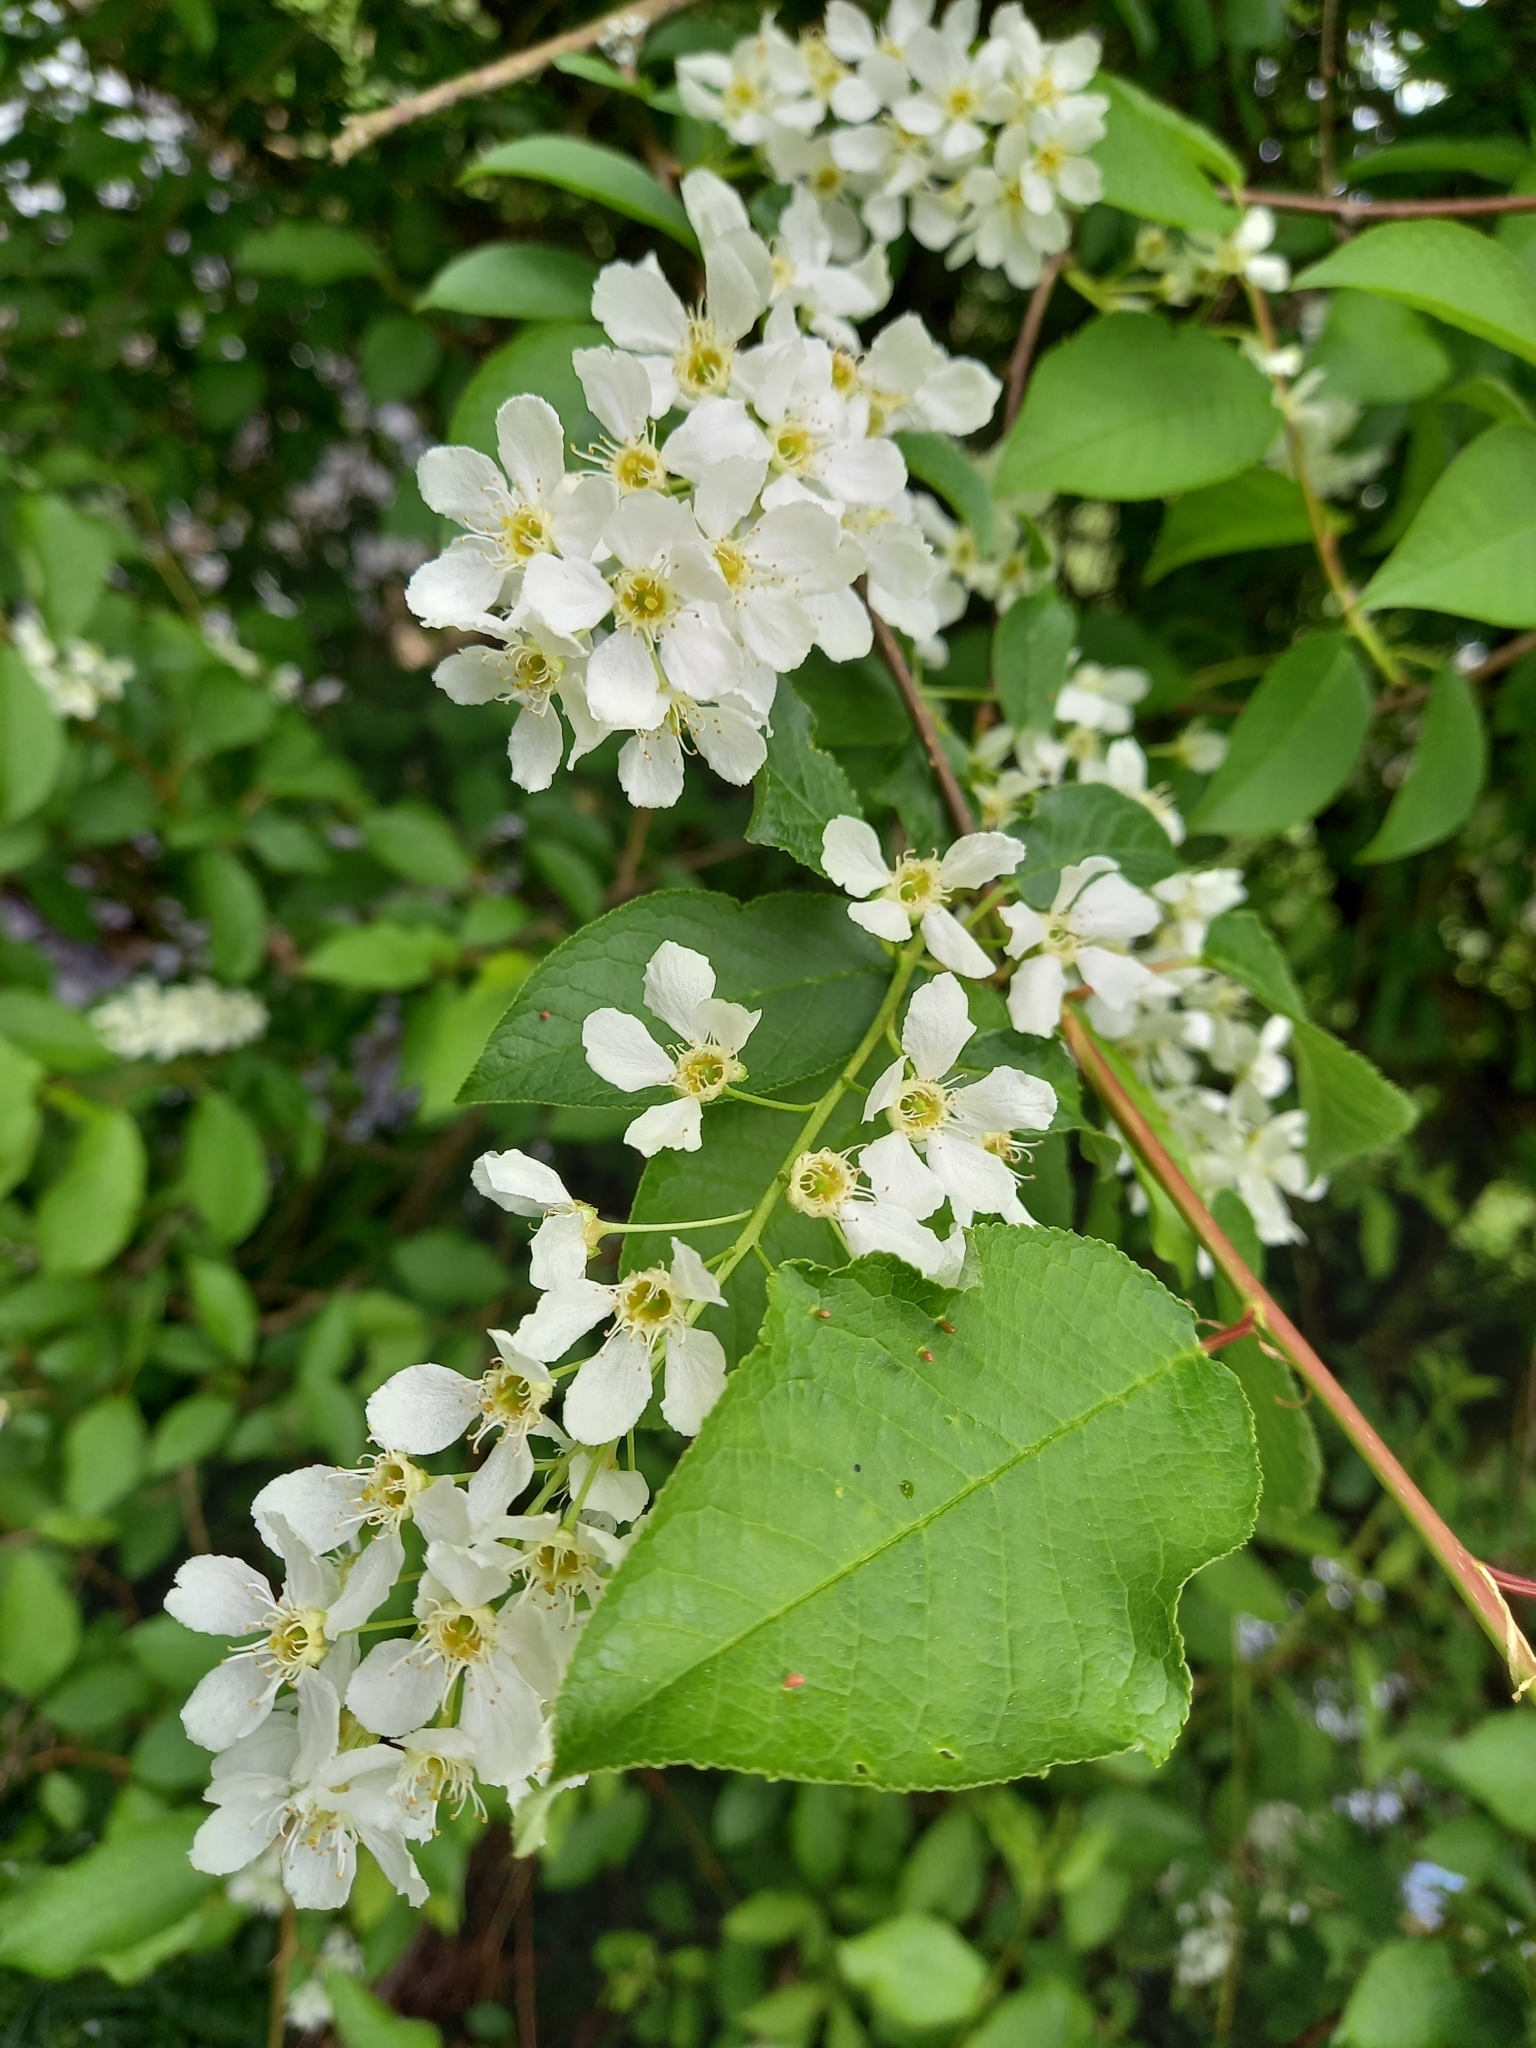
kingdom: Plantae
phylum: Tracheophyta
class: Magnoliopsida
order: Rosales
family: Rosaceae
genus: Prunus
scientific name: Prunus padus
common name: Bird cherry
